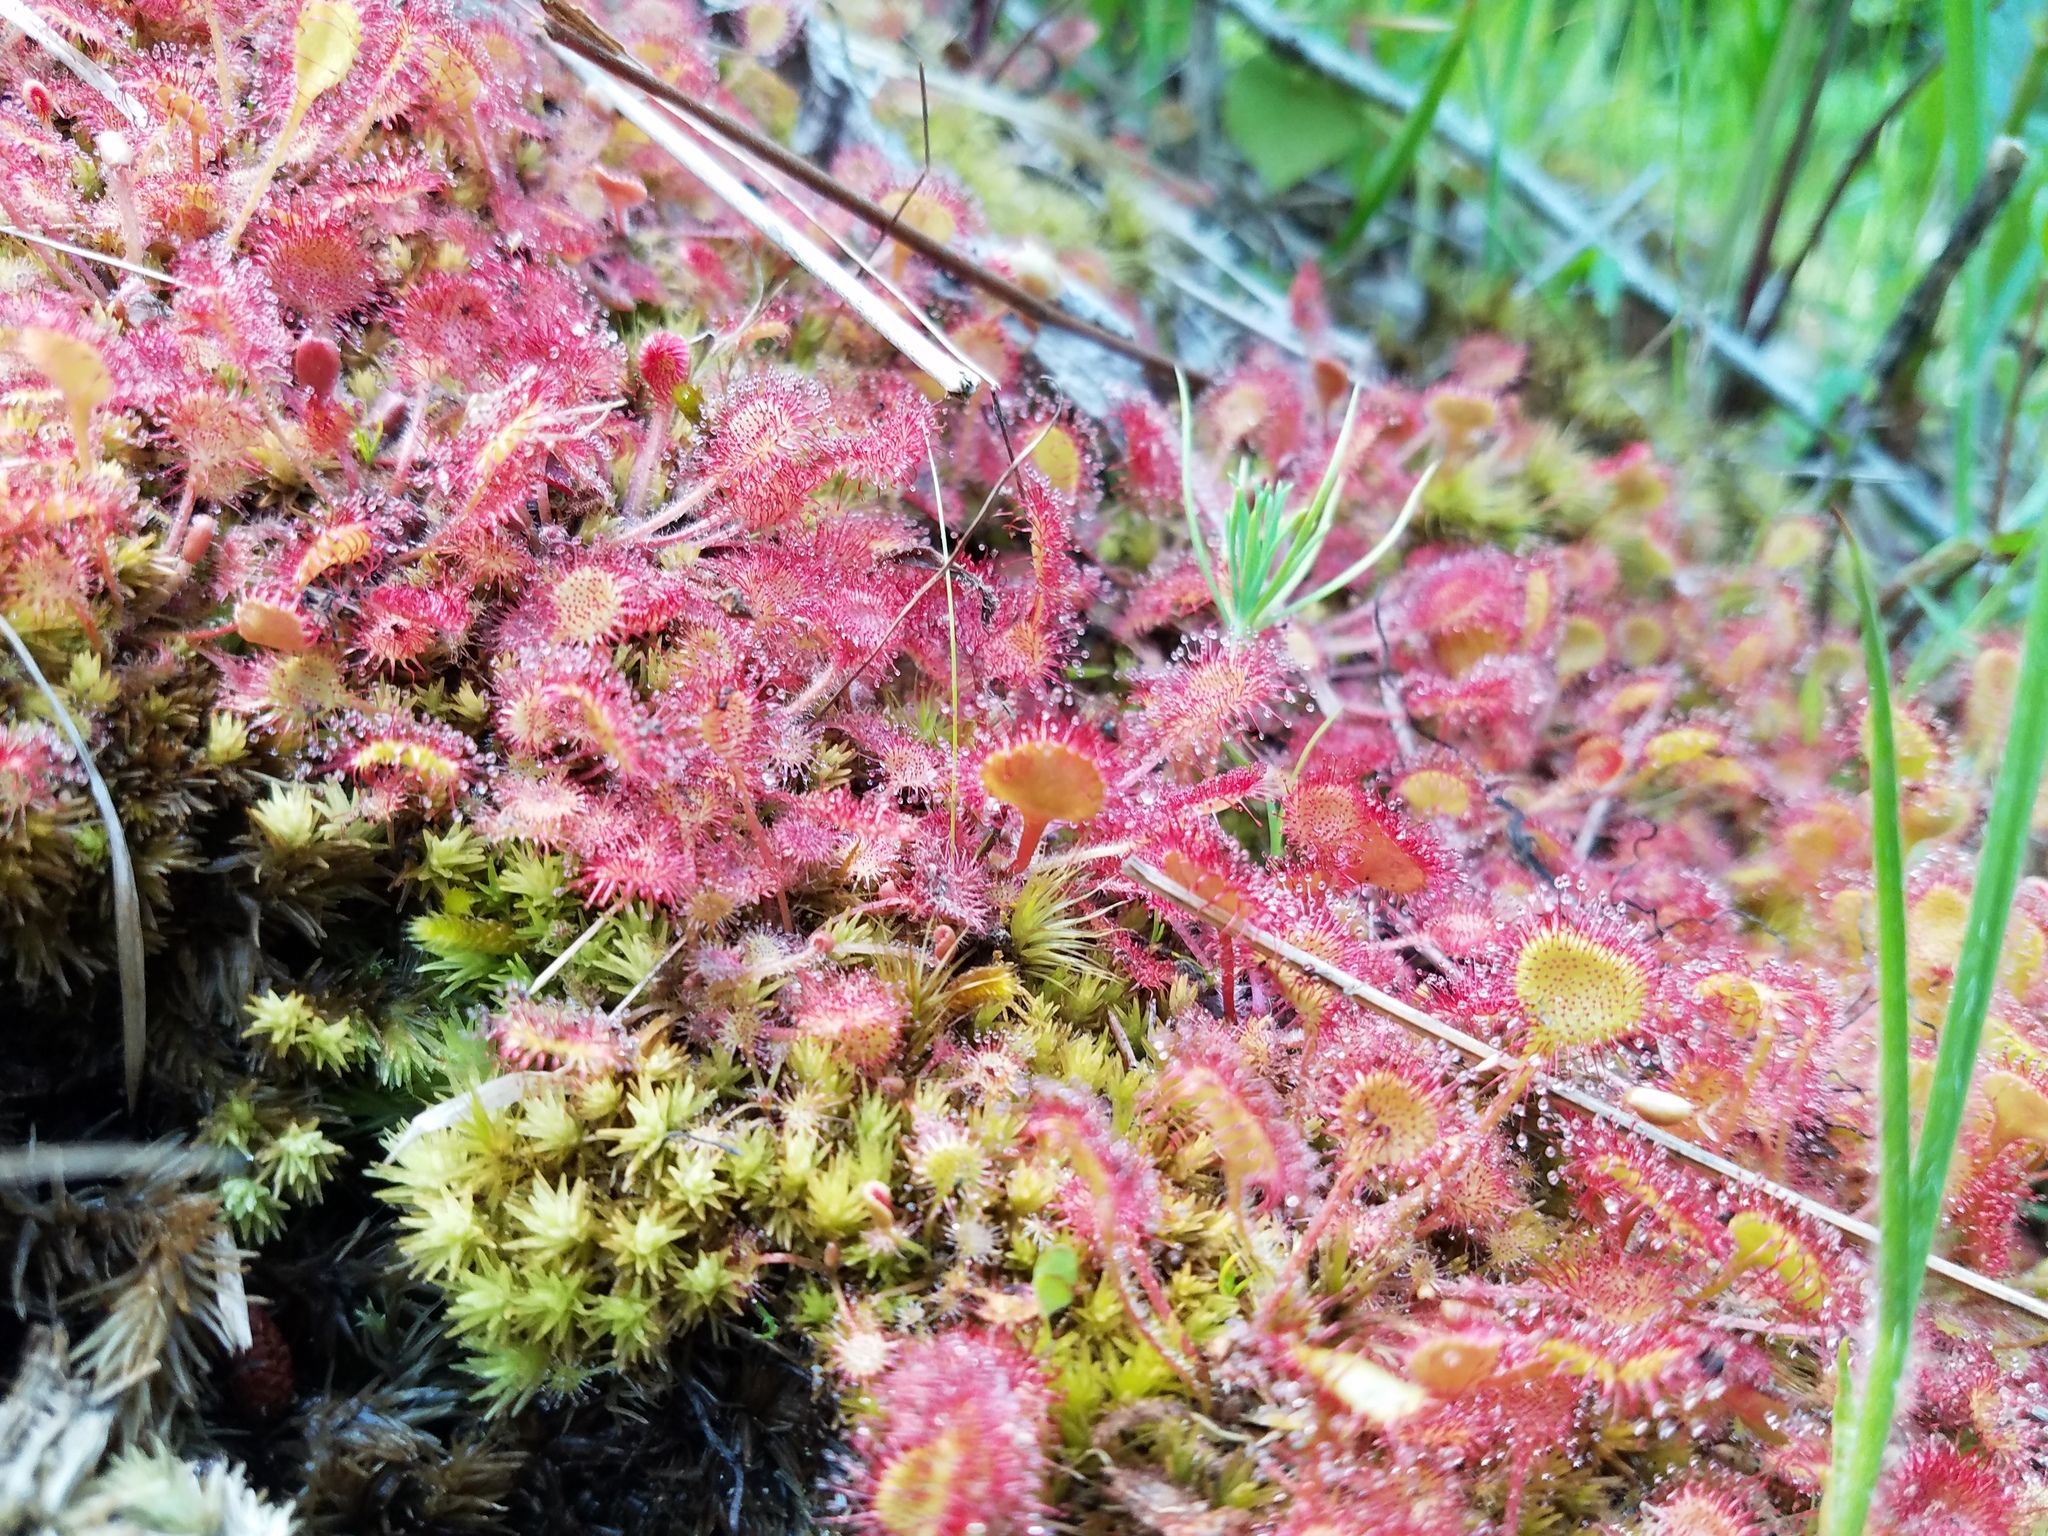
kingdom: Plantae
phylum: Tracheophyta
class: Magnoliopsida
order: Caryophyllales
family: Droseraceae
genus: Drosera
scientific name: Drosera rotundifolia
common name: Round-leaved sundew
